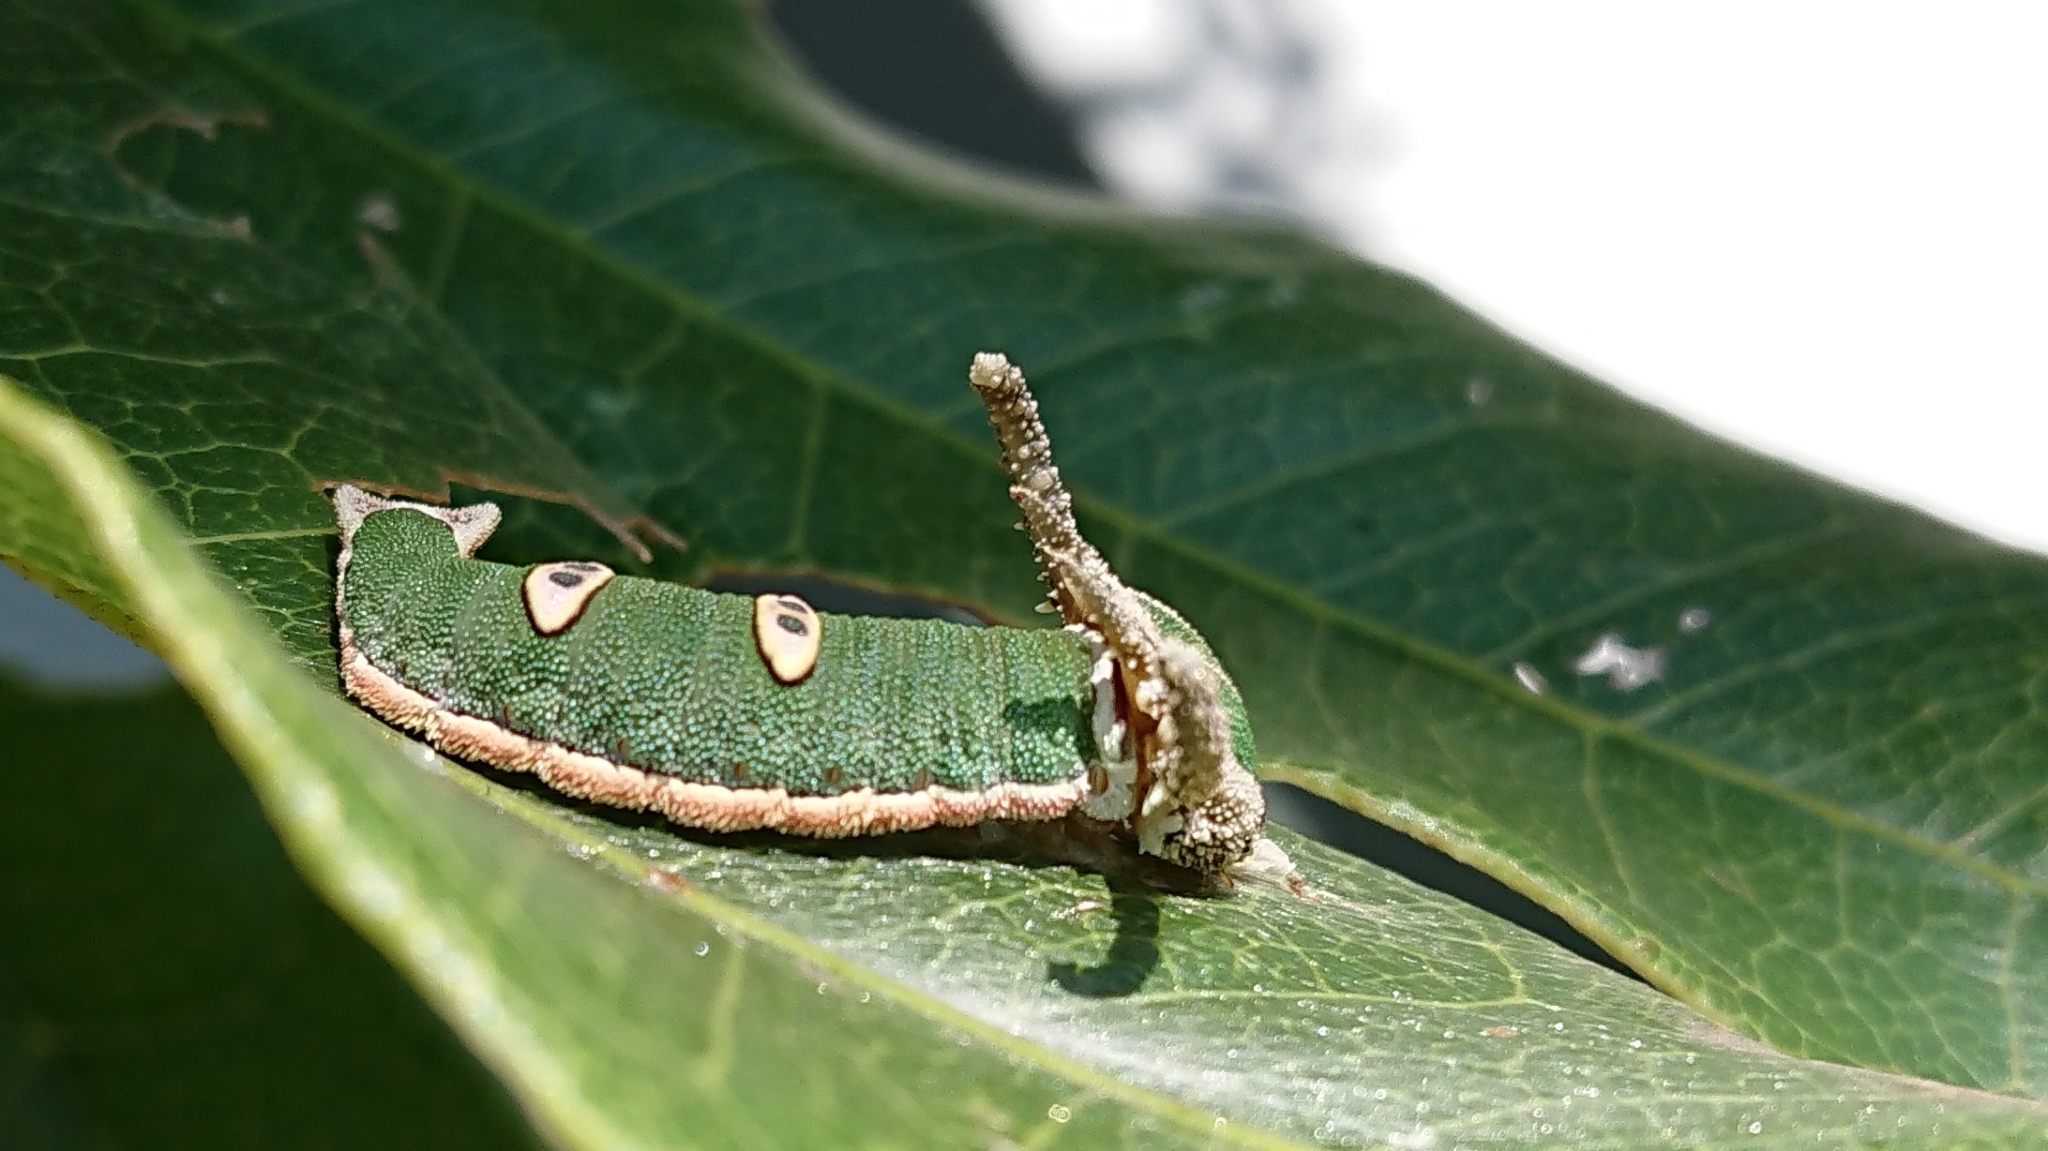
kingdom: Animalia
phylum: Arthropoda
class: Insecta
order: Lepidoptera
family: Nymphalidae
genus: Charaxes
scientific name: Charaxes wakefieldi
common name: Forest queen
